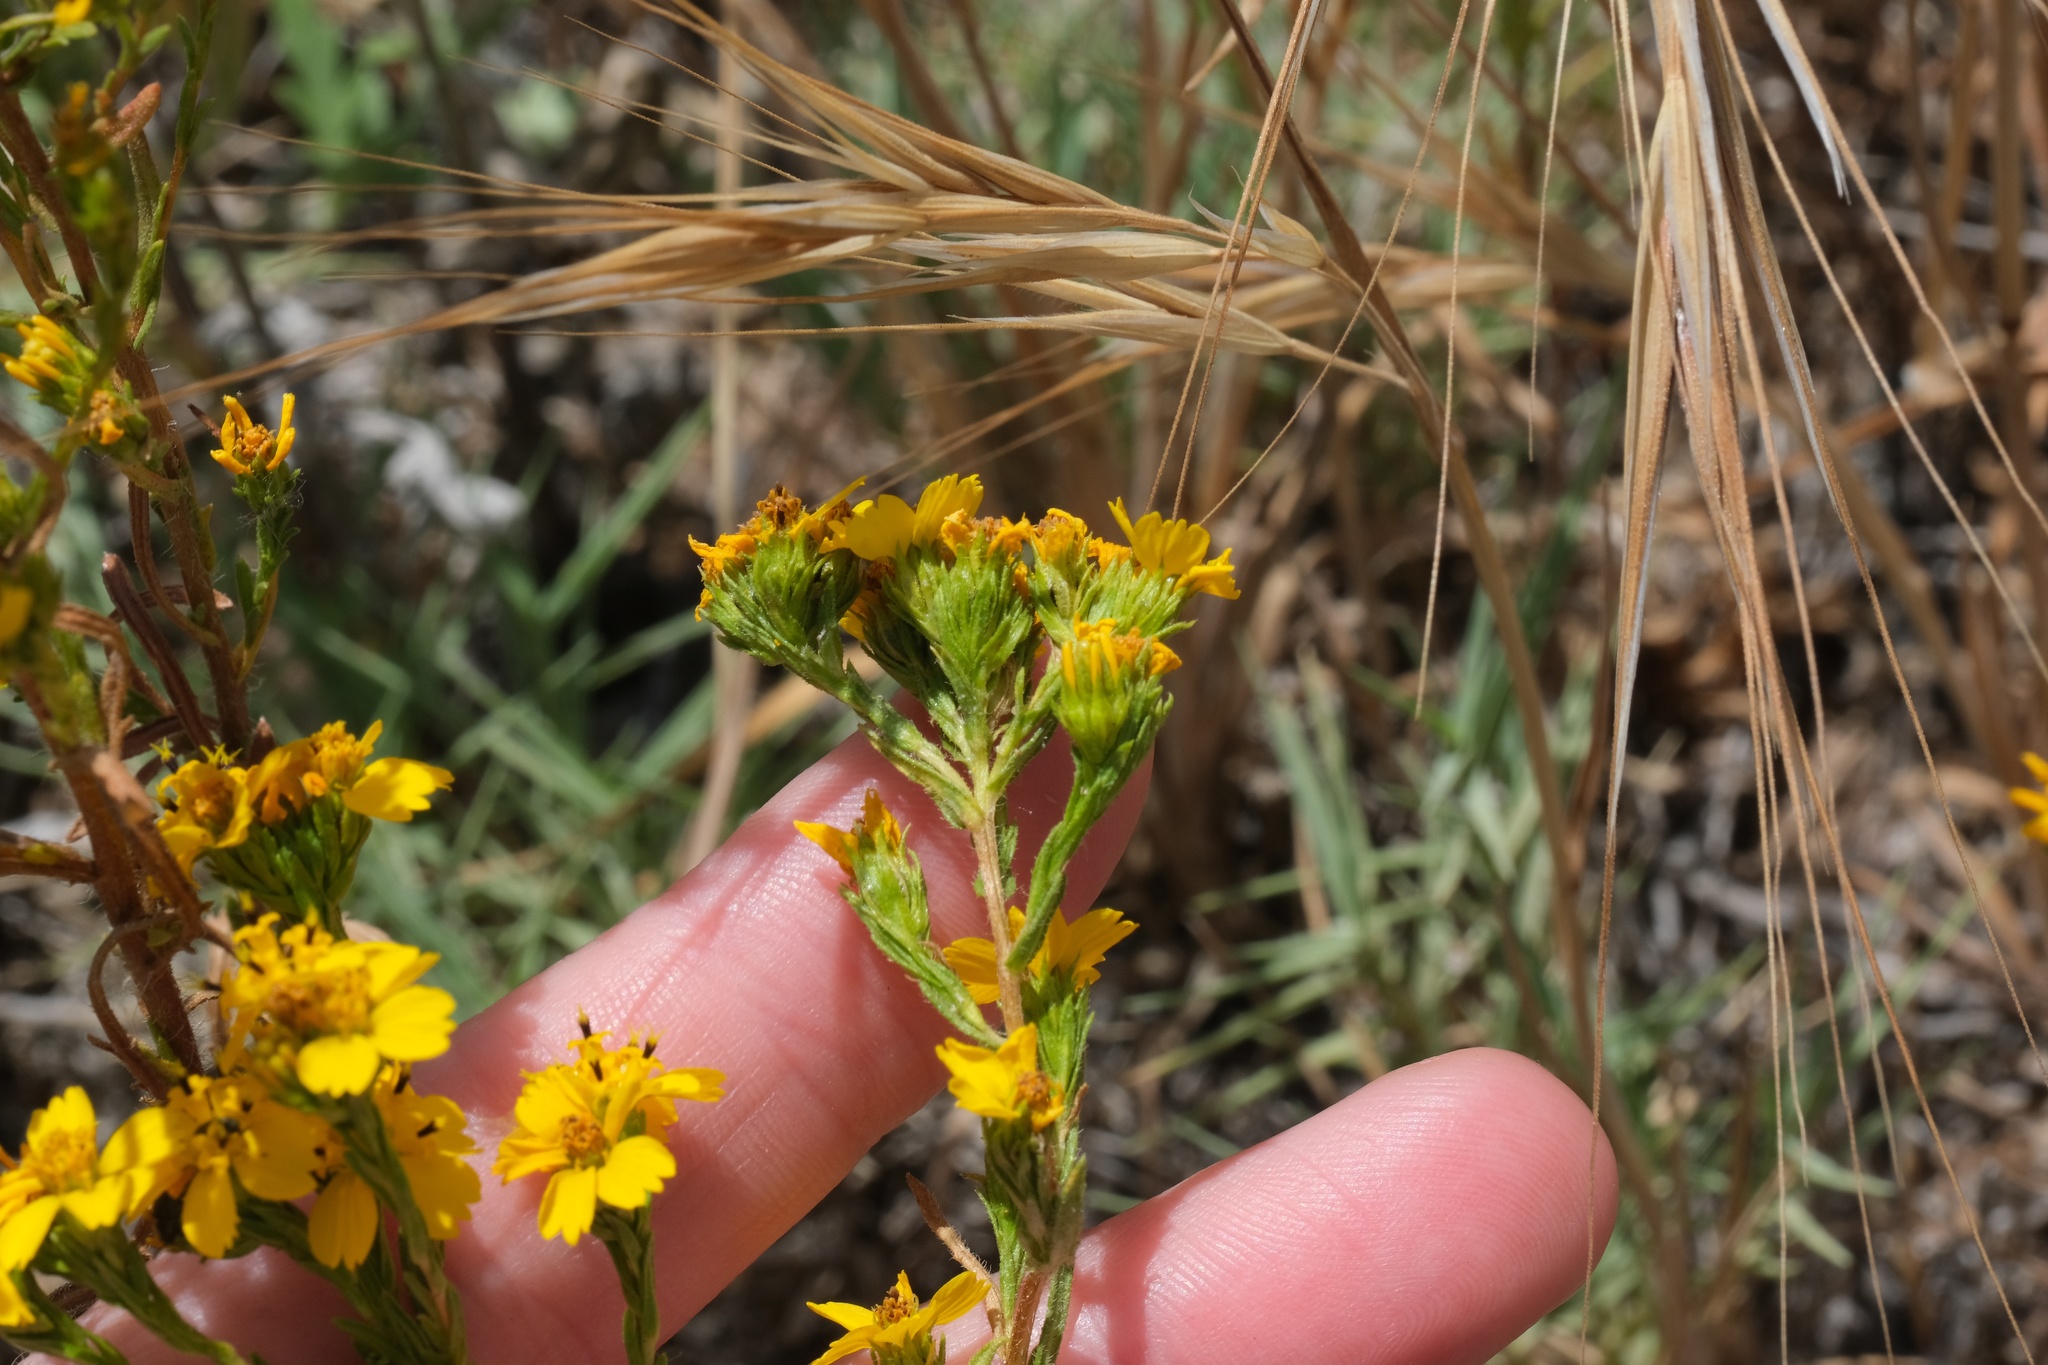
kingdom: Plantae
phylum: Tracheophyta
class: Magnoliopsida
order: Asterales
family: Asteraceae
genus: Deinandra
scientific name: Deinandra fasciculata
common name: Clustered tarweed
